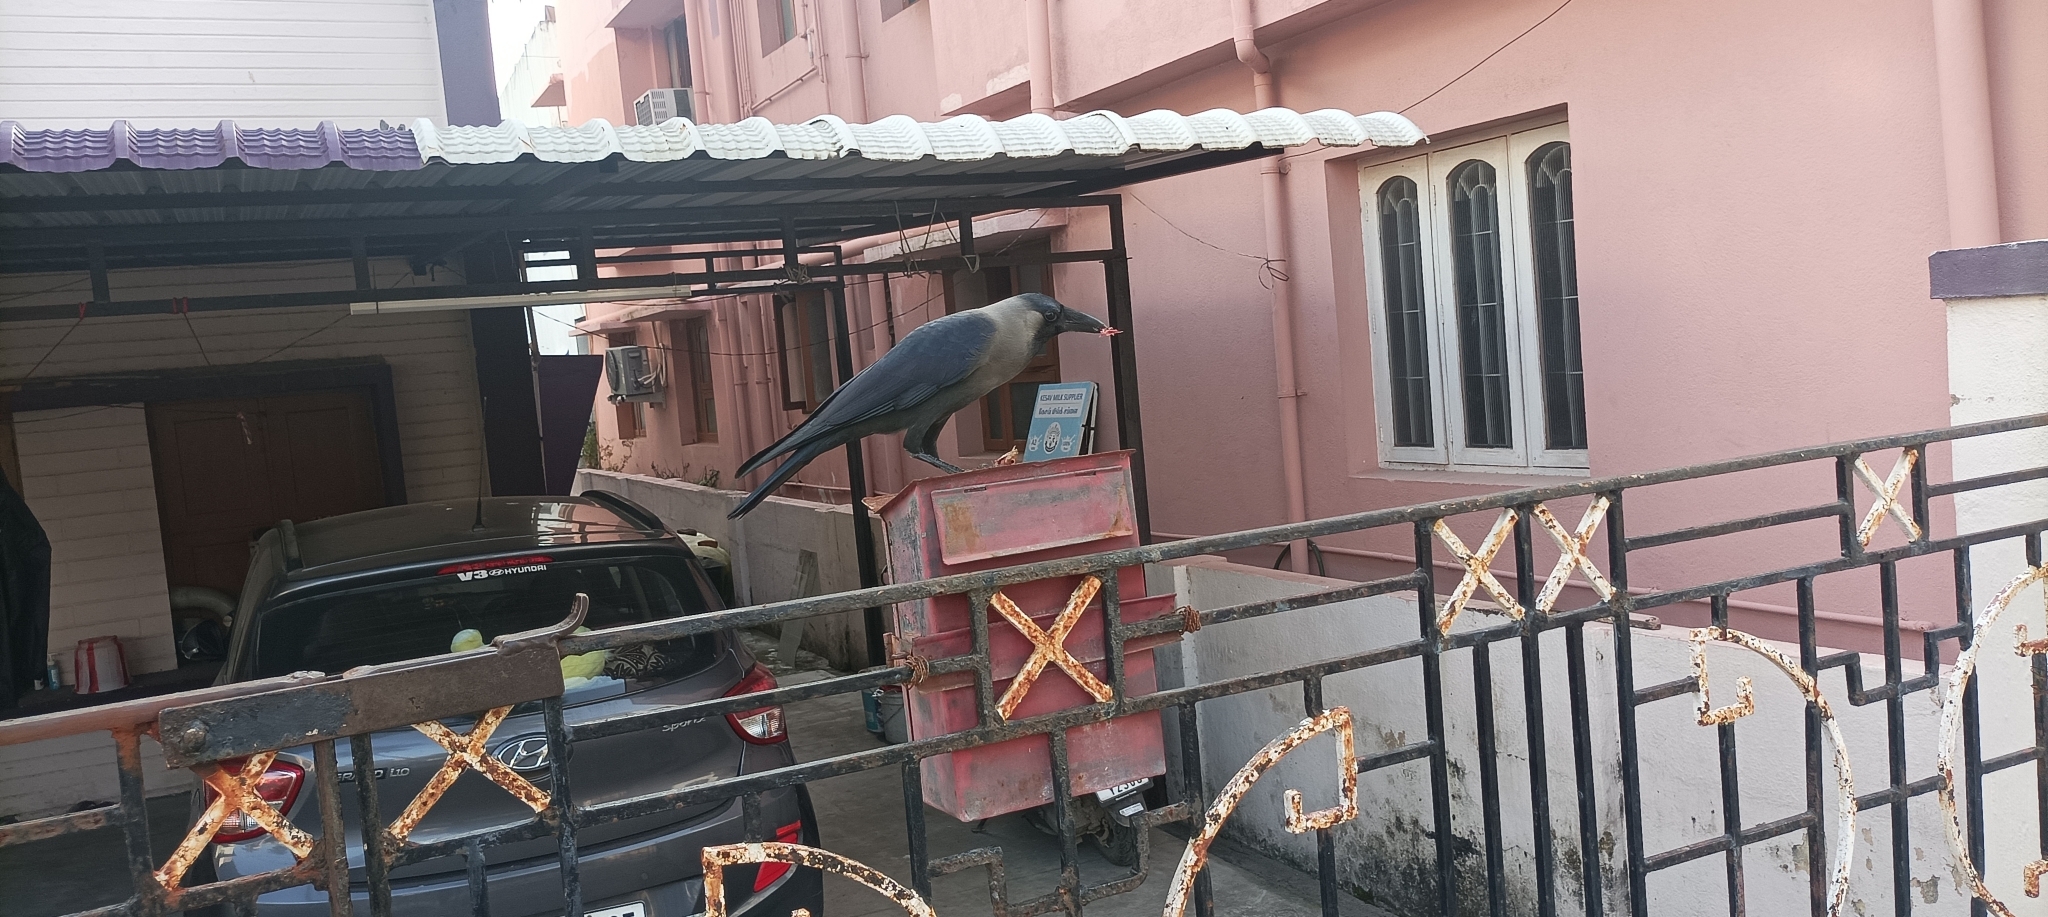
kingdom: Animalia
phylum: Chordata
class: Aves
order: Passeriformes
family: Corvidae
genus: Corvus
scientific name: Corvus splendens
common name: House crow
